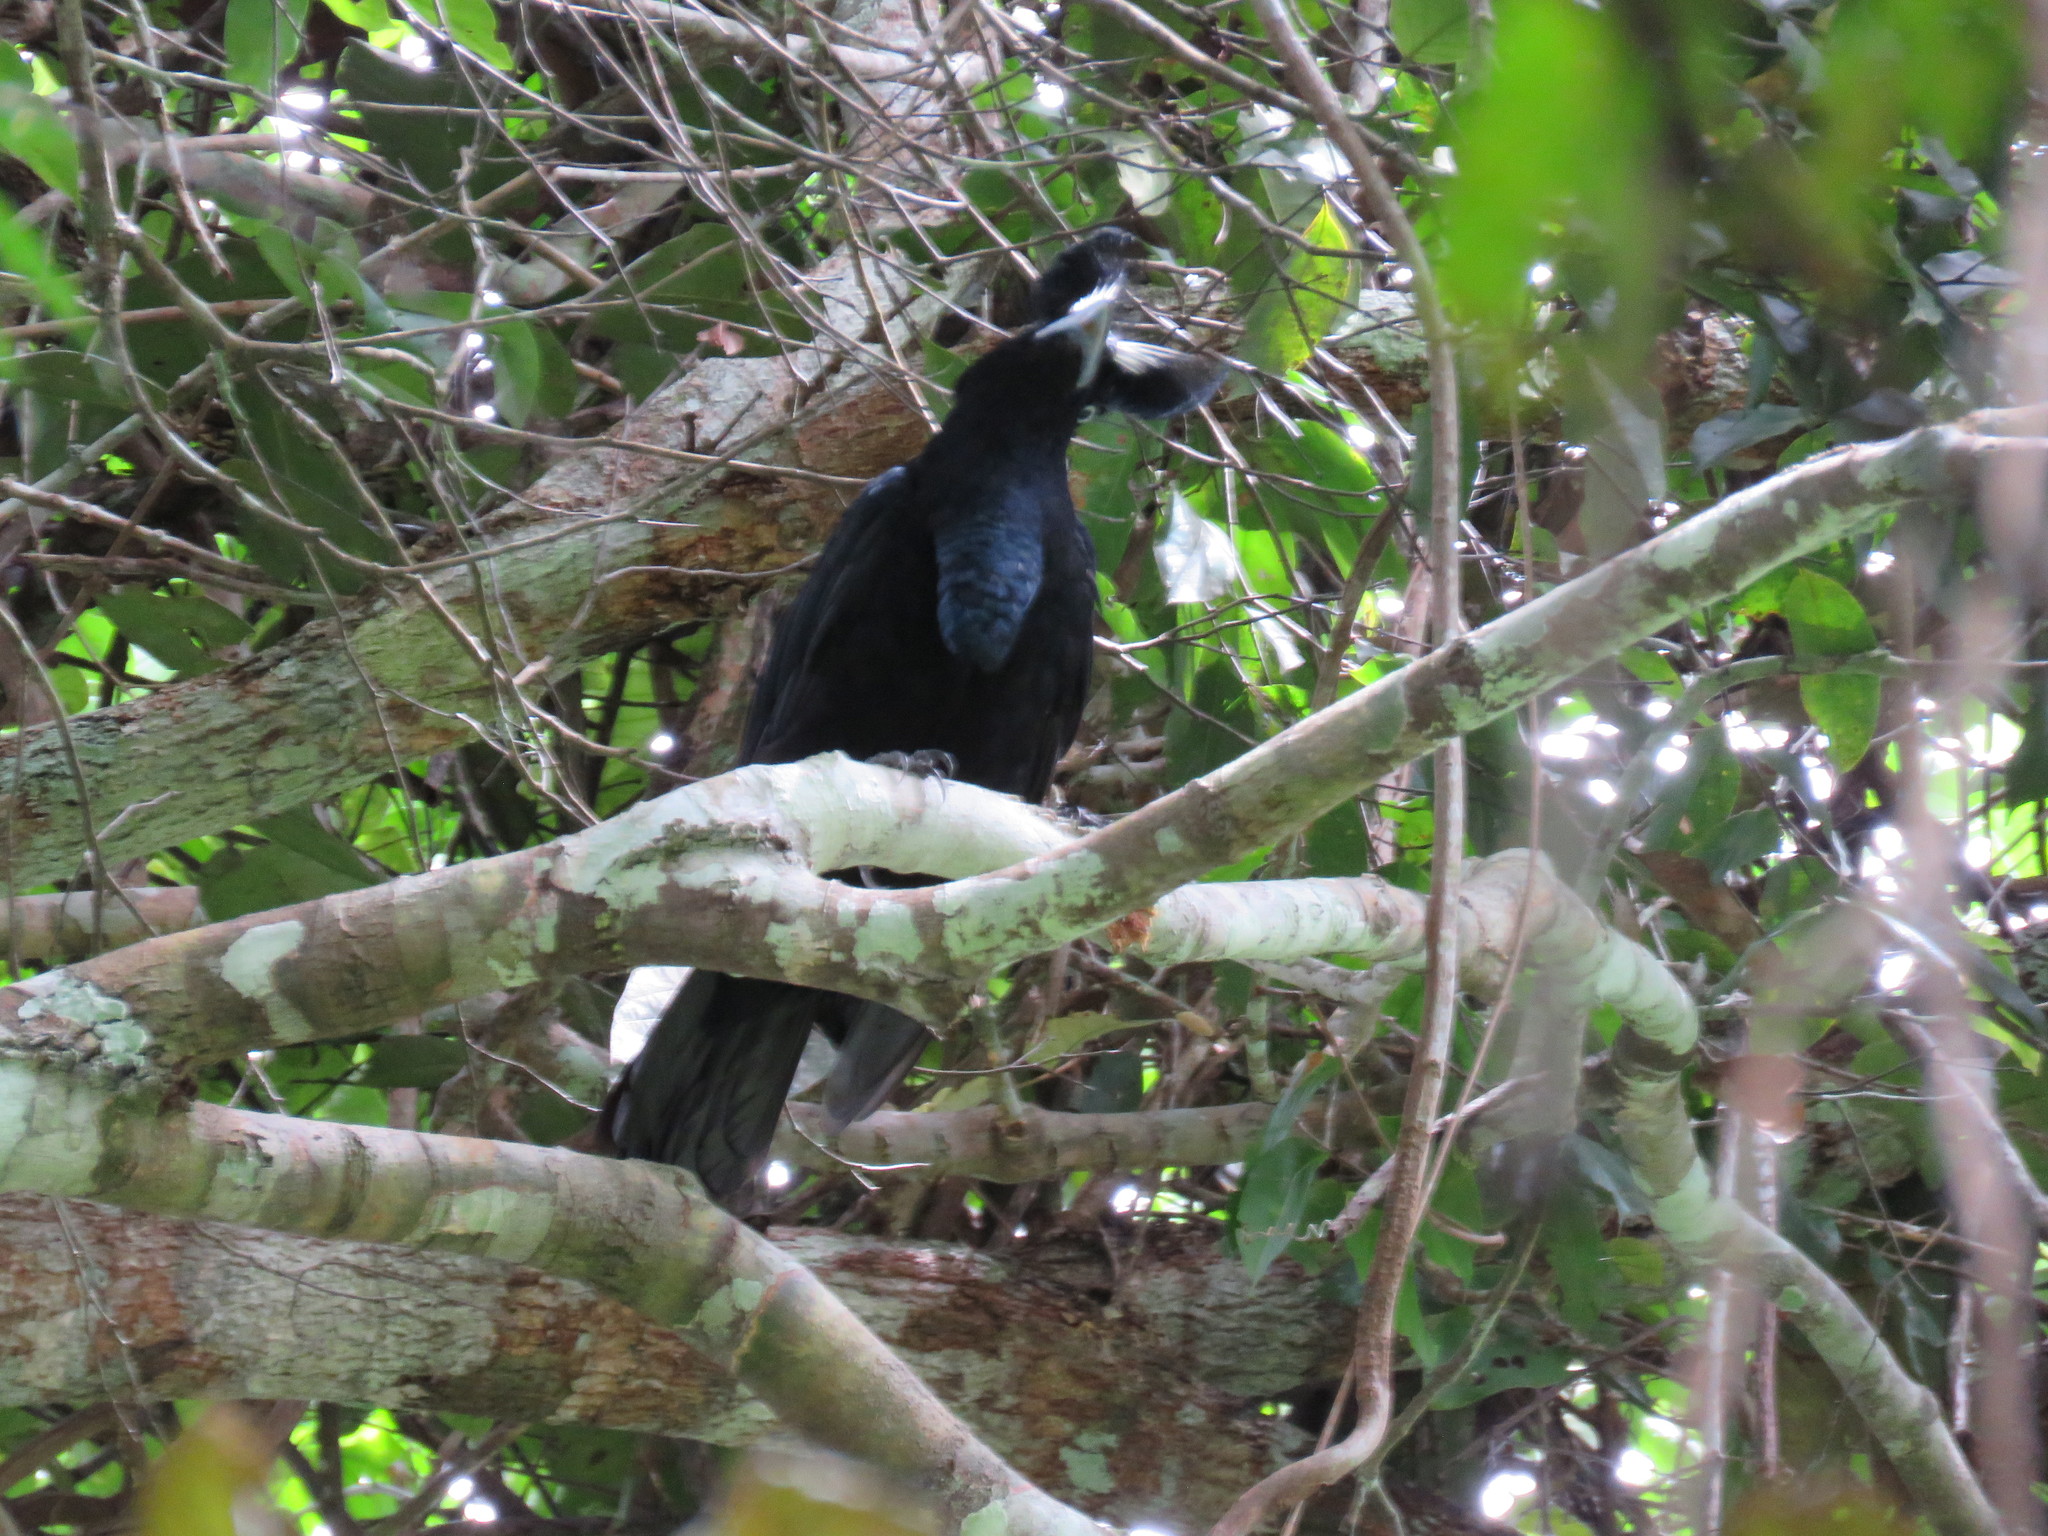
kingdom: Animalia
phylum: Chordata
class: Aves
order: Passeriformes
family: Cotingidae
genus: Cephalopterus
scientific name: Cephalopterus ornatus
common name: Amazonian umbrellabird
